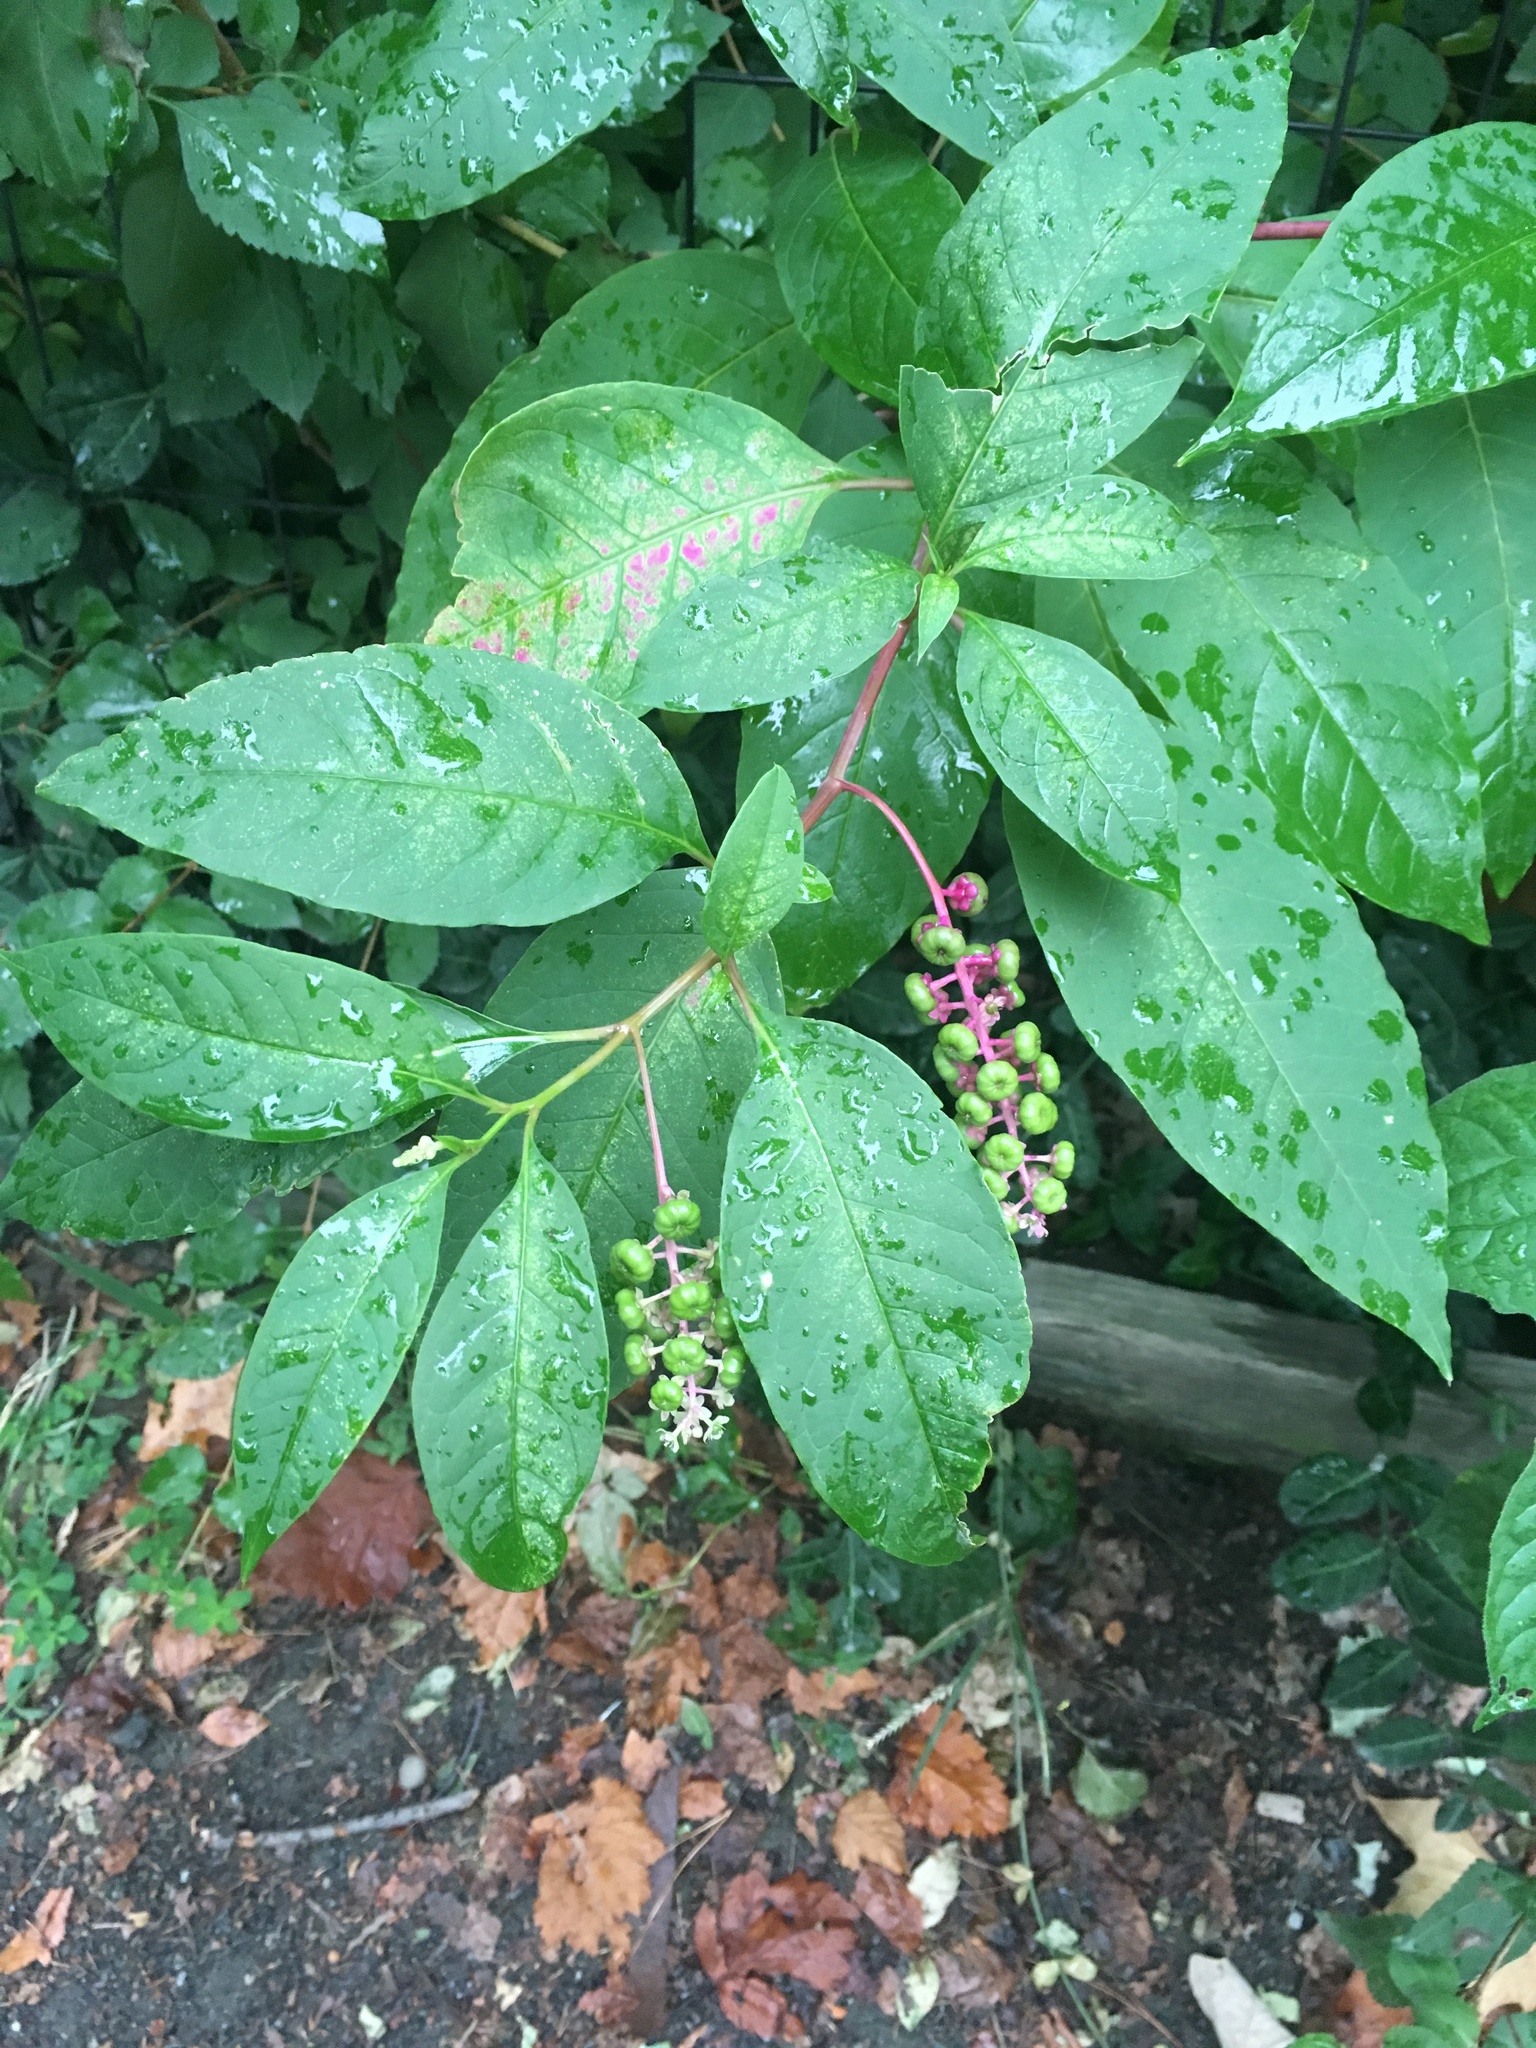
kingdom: Plantae
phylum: Tracheophyta
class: Magnoliopsida
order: Caryophyllales
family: Phytolaccaceae
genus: Phytolacca
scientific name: Phytolacca americana
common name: American pokeweed
